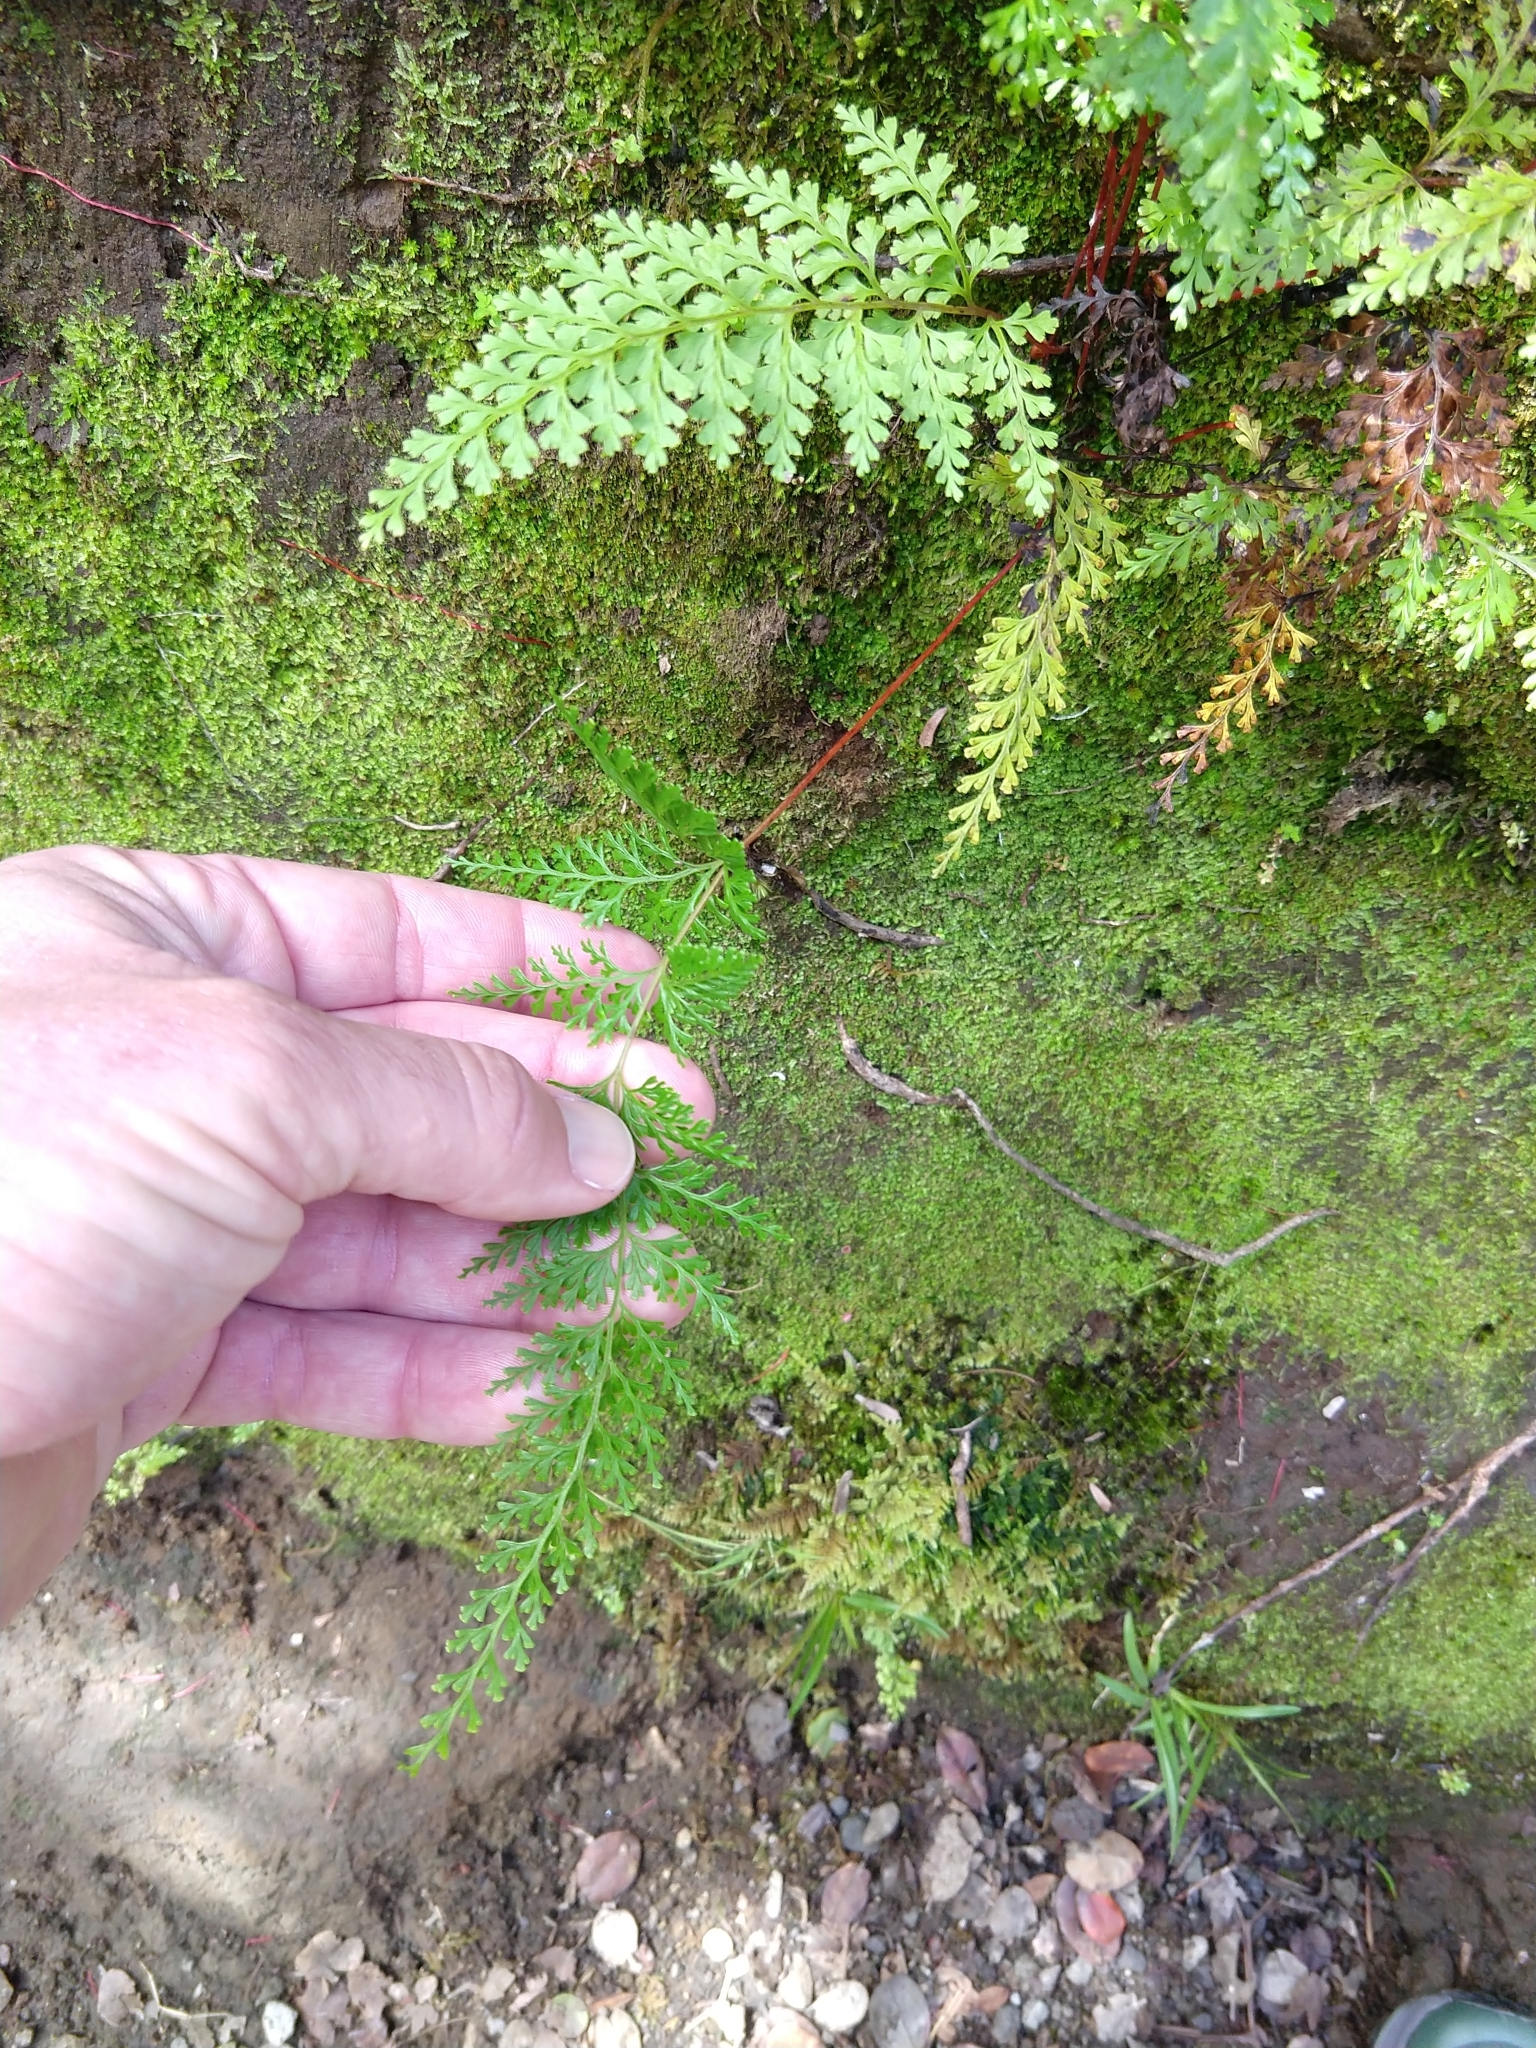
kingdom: Plantae
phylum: Tracheophyta
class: Polypodiopsida
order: Polypodiales
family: Lindsaeaceae
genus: Odontosoria
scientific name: Odontosoria chinensis
